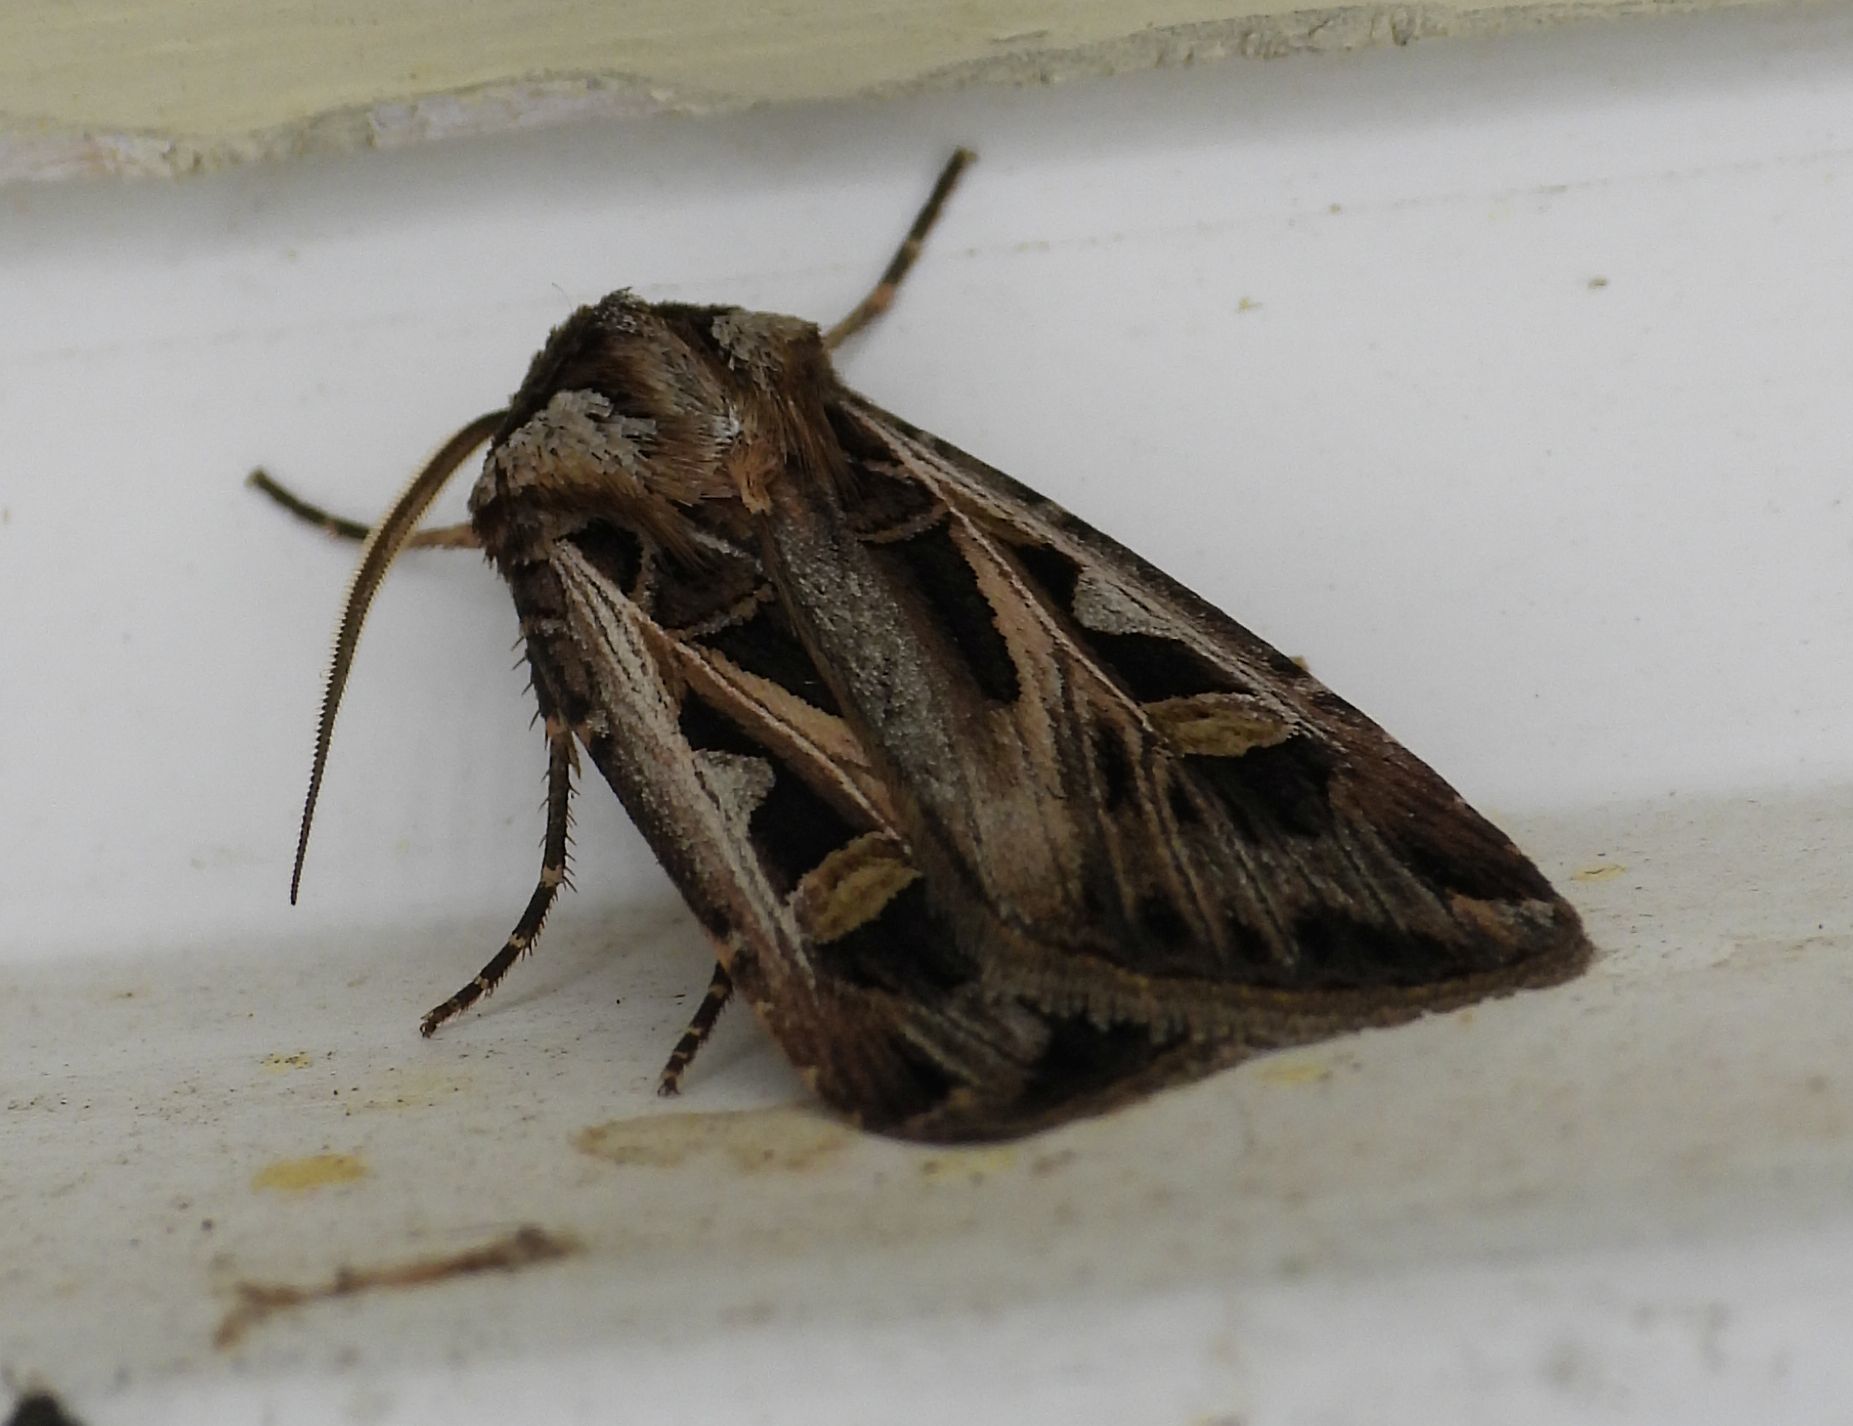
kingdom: Animalia
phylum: Arthropoda
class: Insecta
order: Lepidoptera
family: Noctuidae
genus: Feltia
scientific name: Feltia jaculifera
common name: Dingy cutworm moth
